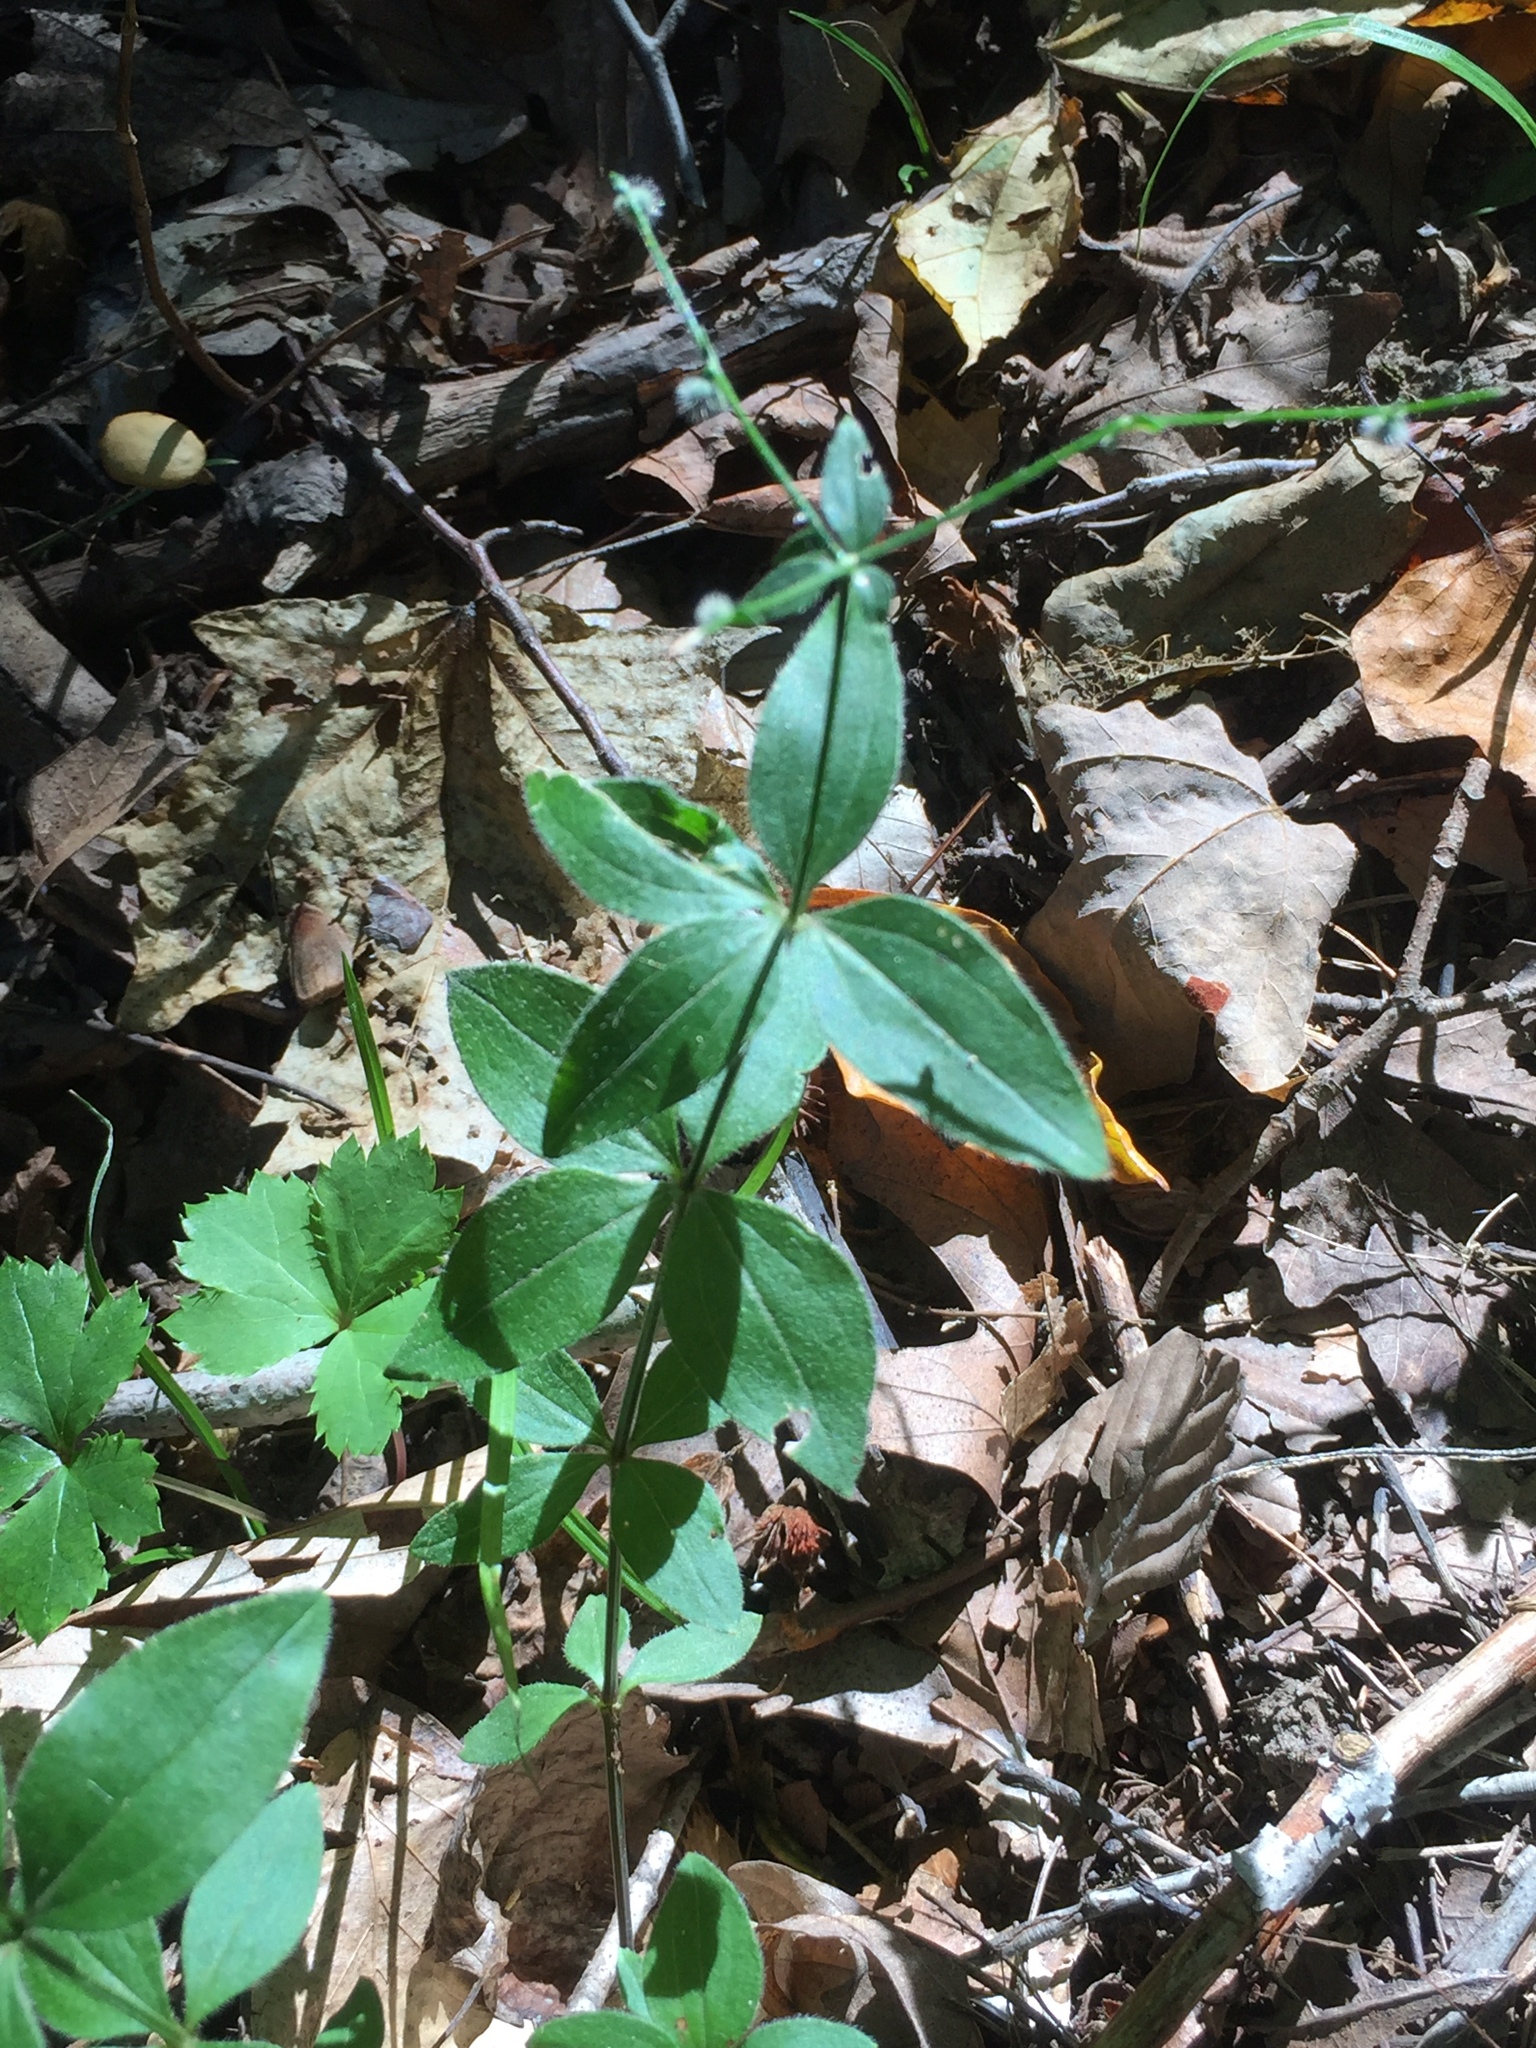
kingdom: Plantae
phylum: Tracheophyta
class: Magnoliopsida
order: Gentianales
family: Rubiaceae
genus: Galium
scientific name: Galium circaezans
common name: Forest bedstraw
